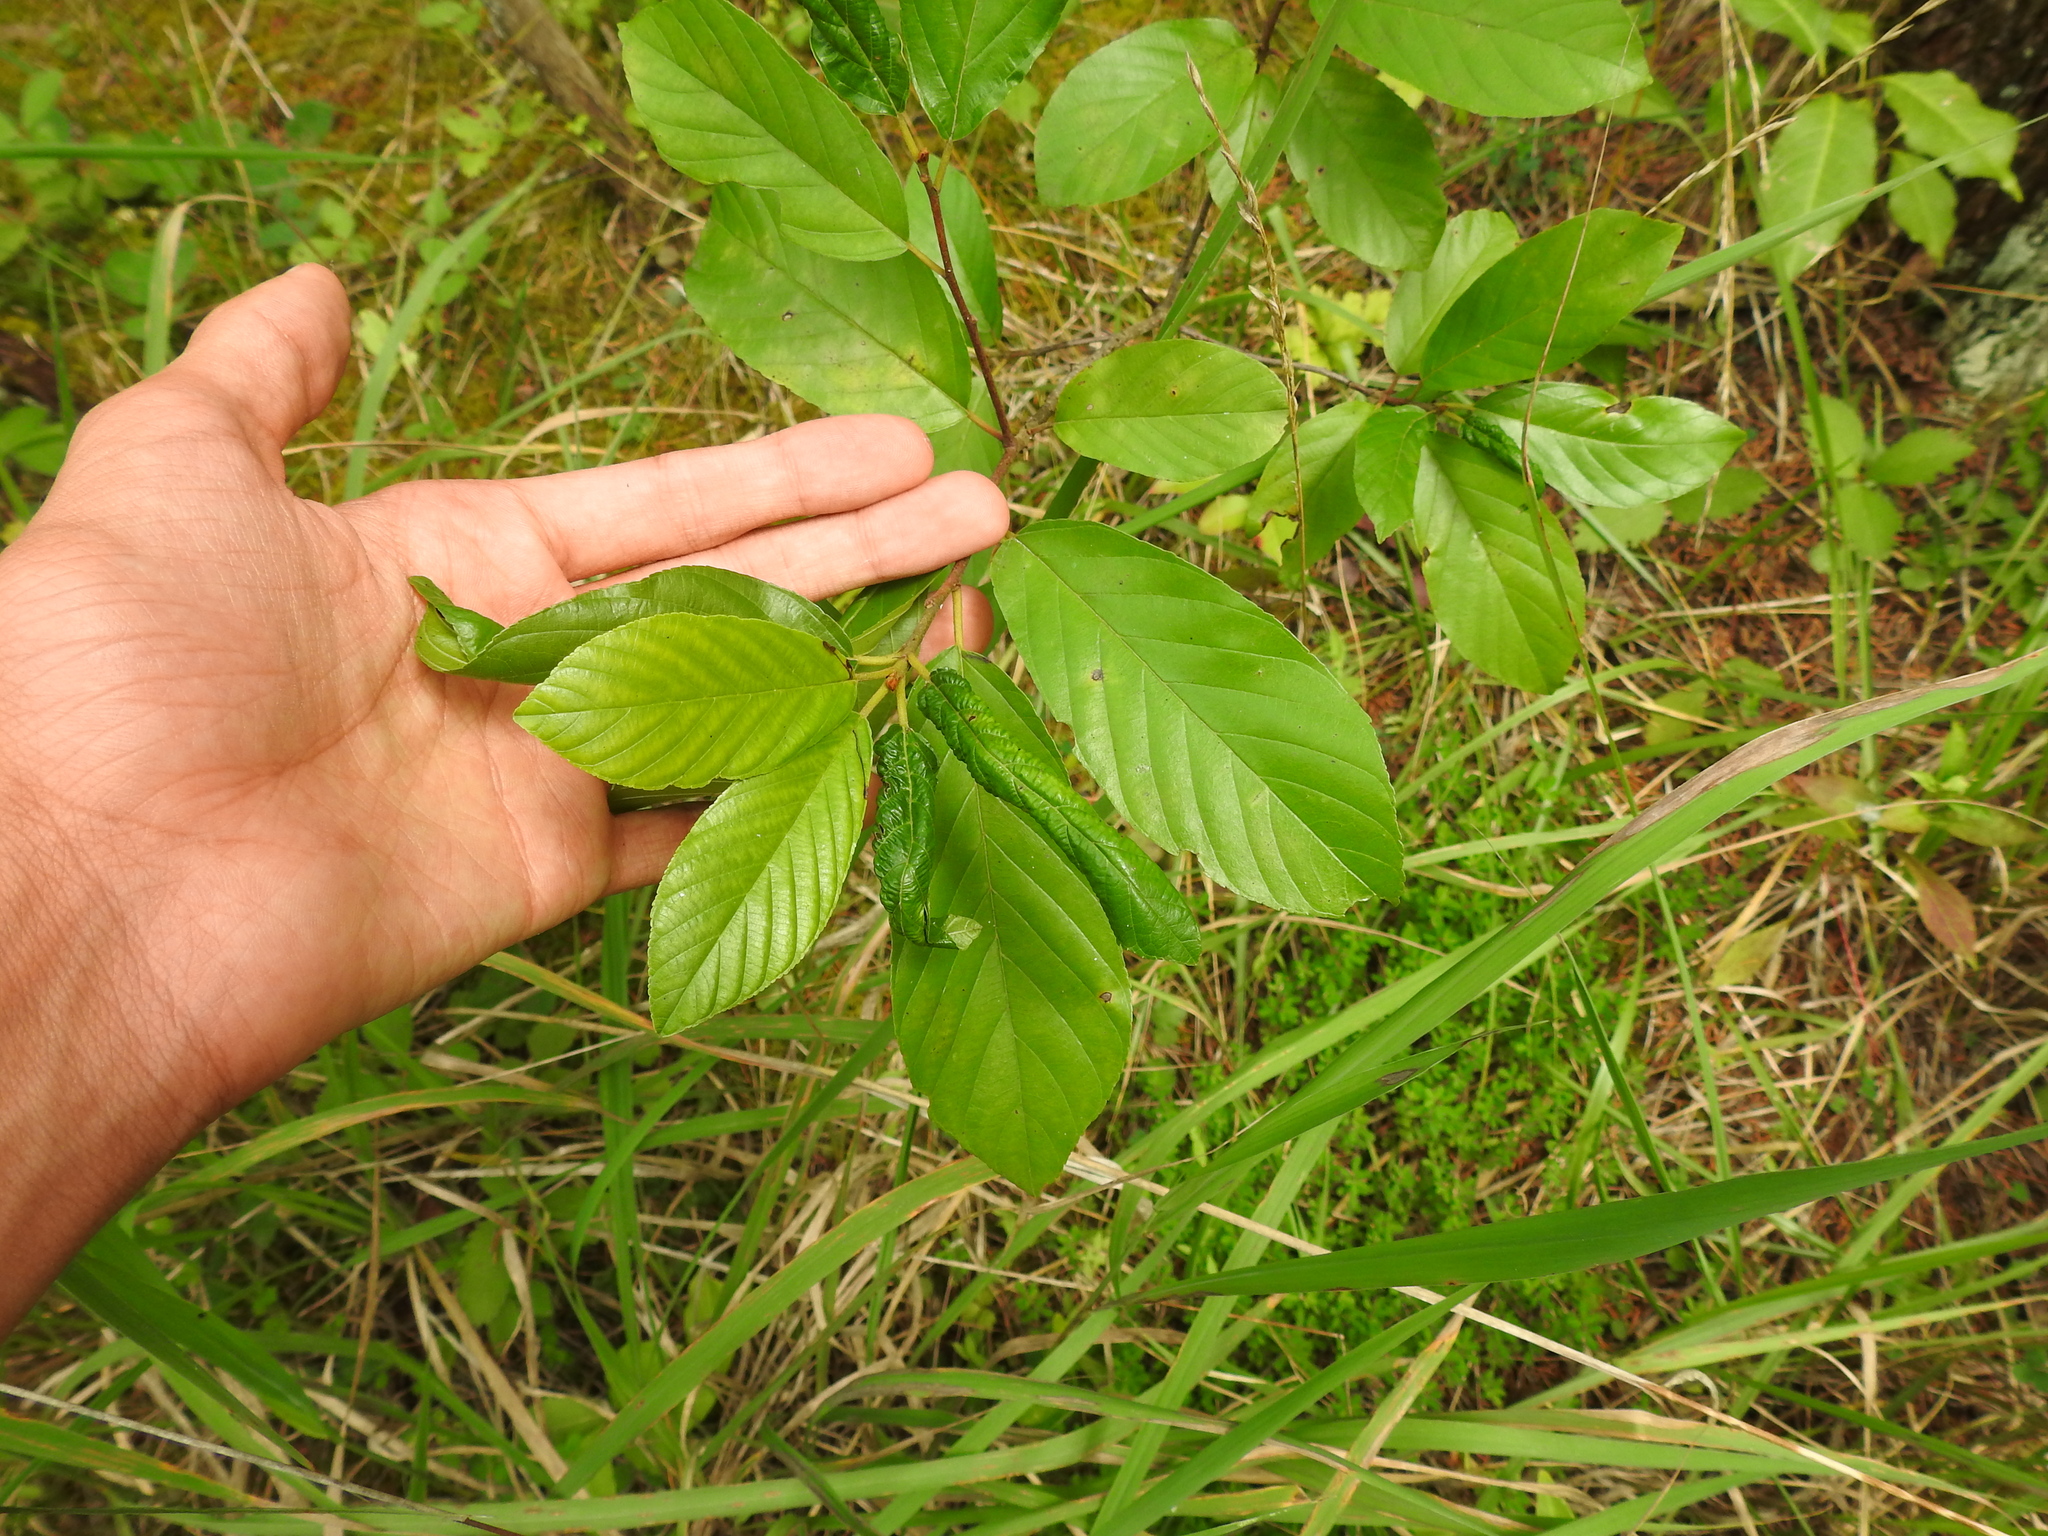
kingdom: Plantae
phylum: Tracheophyta
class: Magnoliopsida
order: Rosales
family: Rhamnaceae
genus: Frangula
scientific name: Frangula caroliniana
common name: Carolina buckthorn
